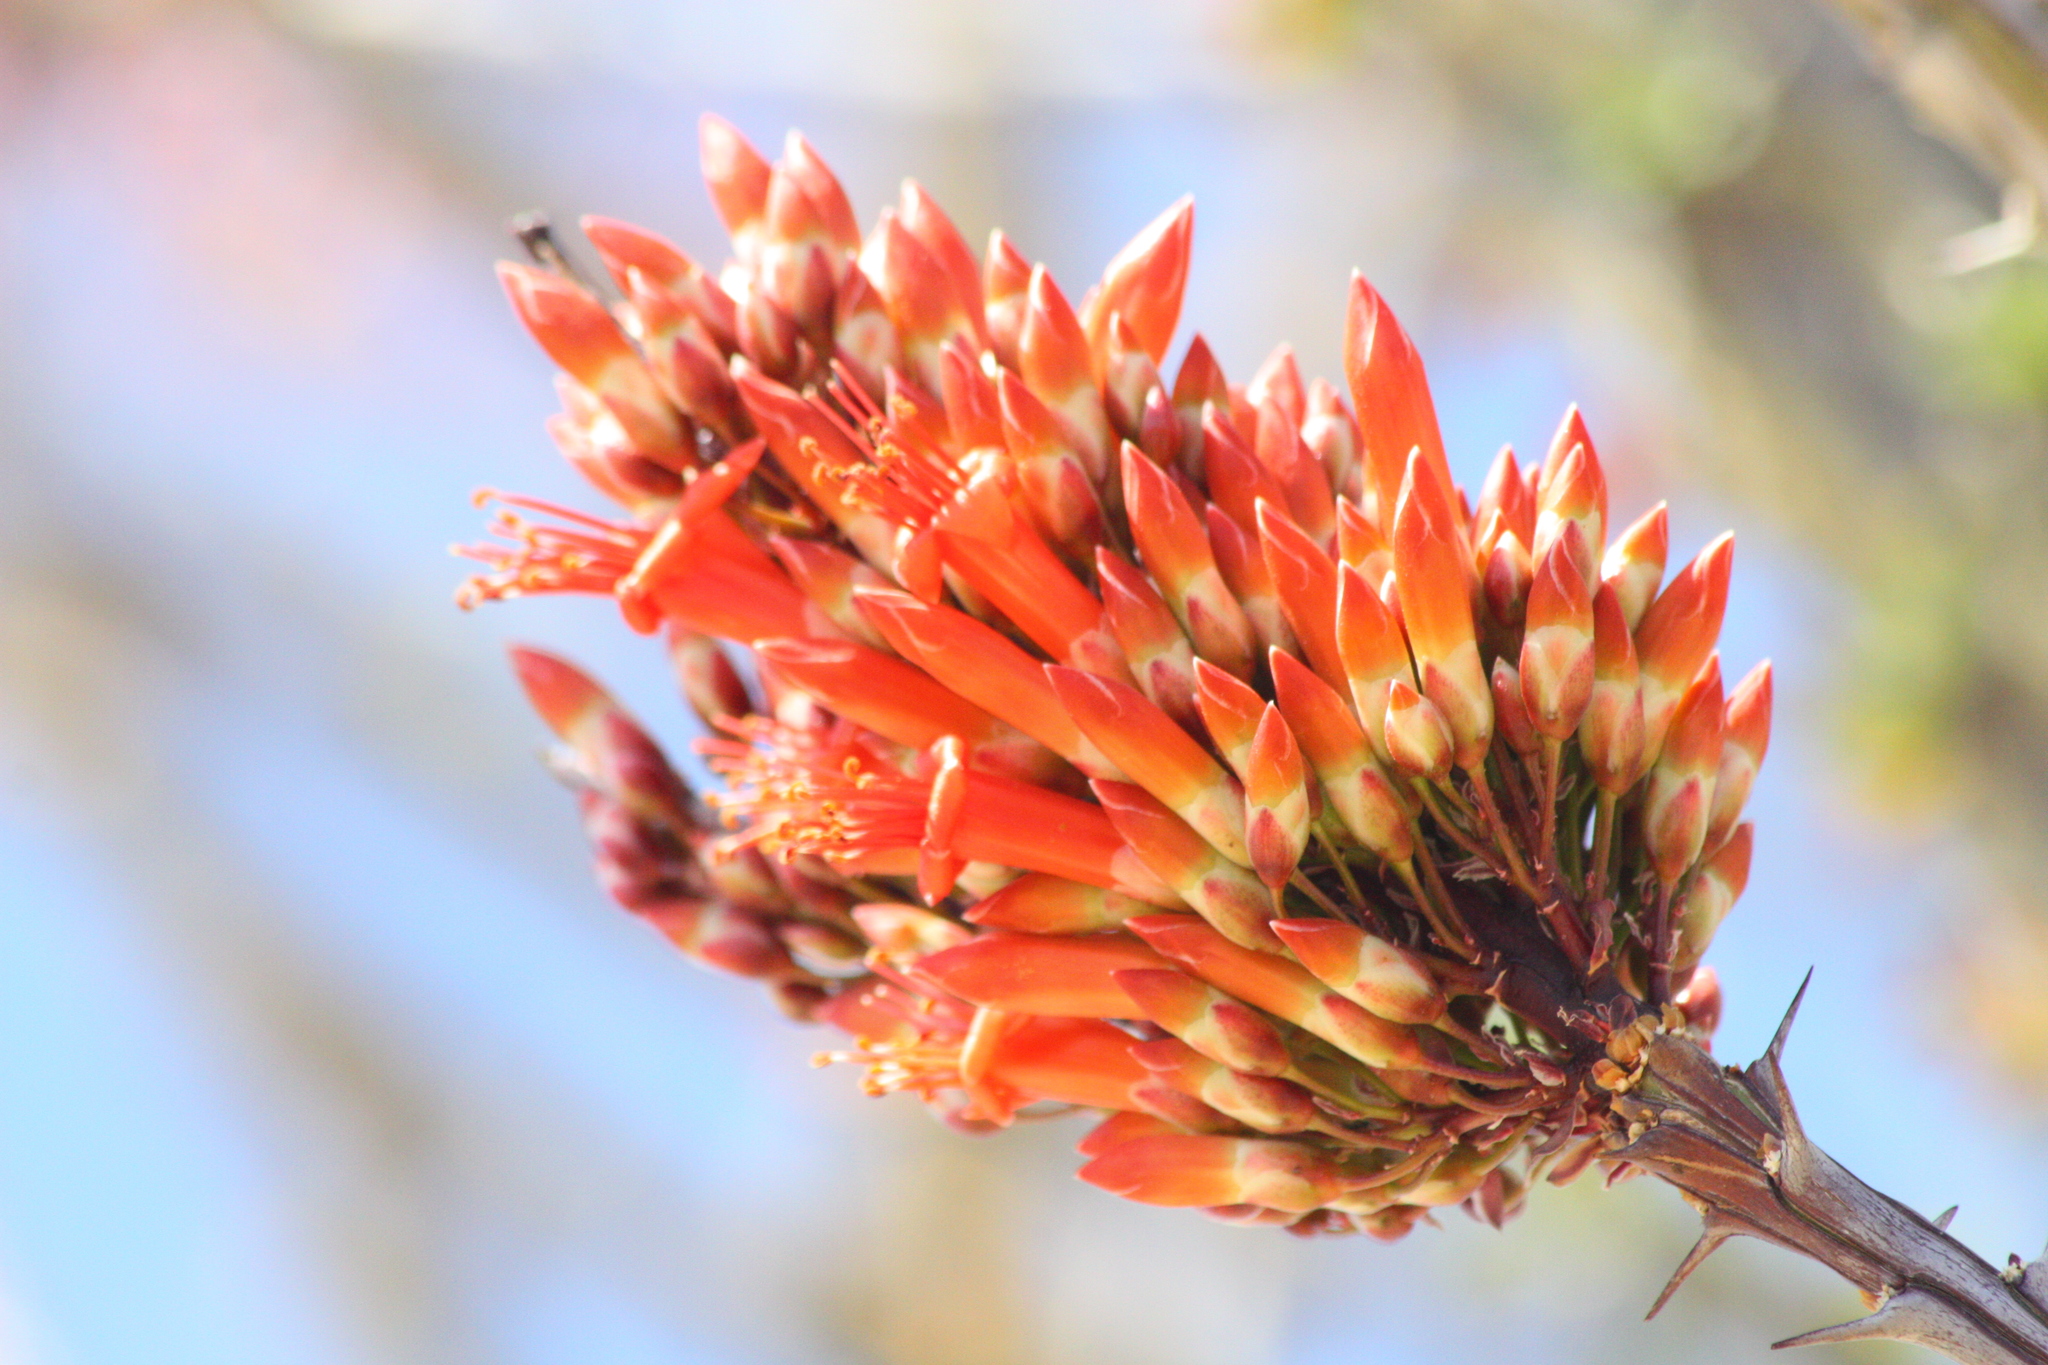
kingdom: Plantae
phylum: Tracheophyta
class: Magnoliopsida
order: Ericales
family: Fouquieriaceae
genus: Fouquieria
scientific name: Fouquieria splendens
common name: Vine-cactus
